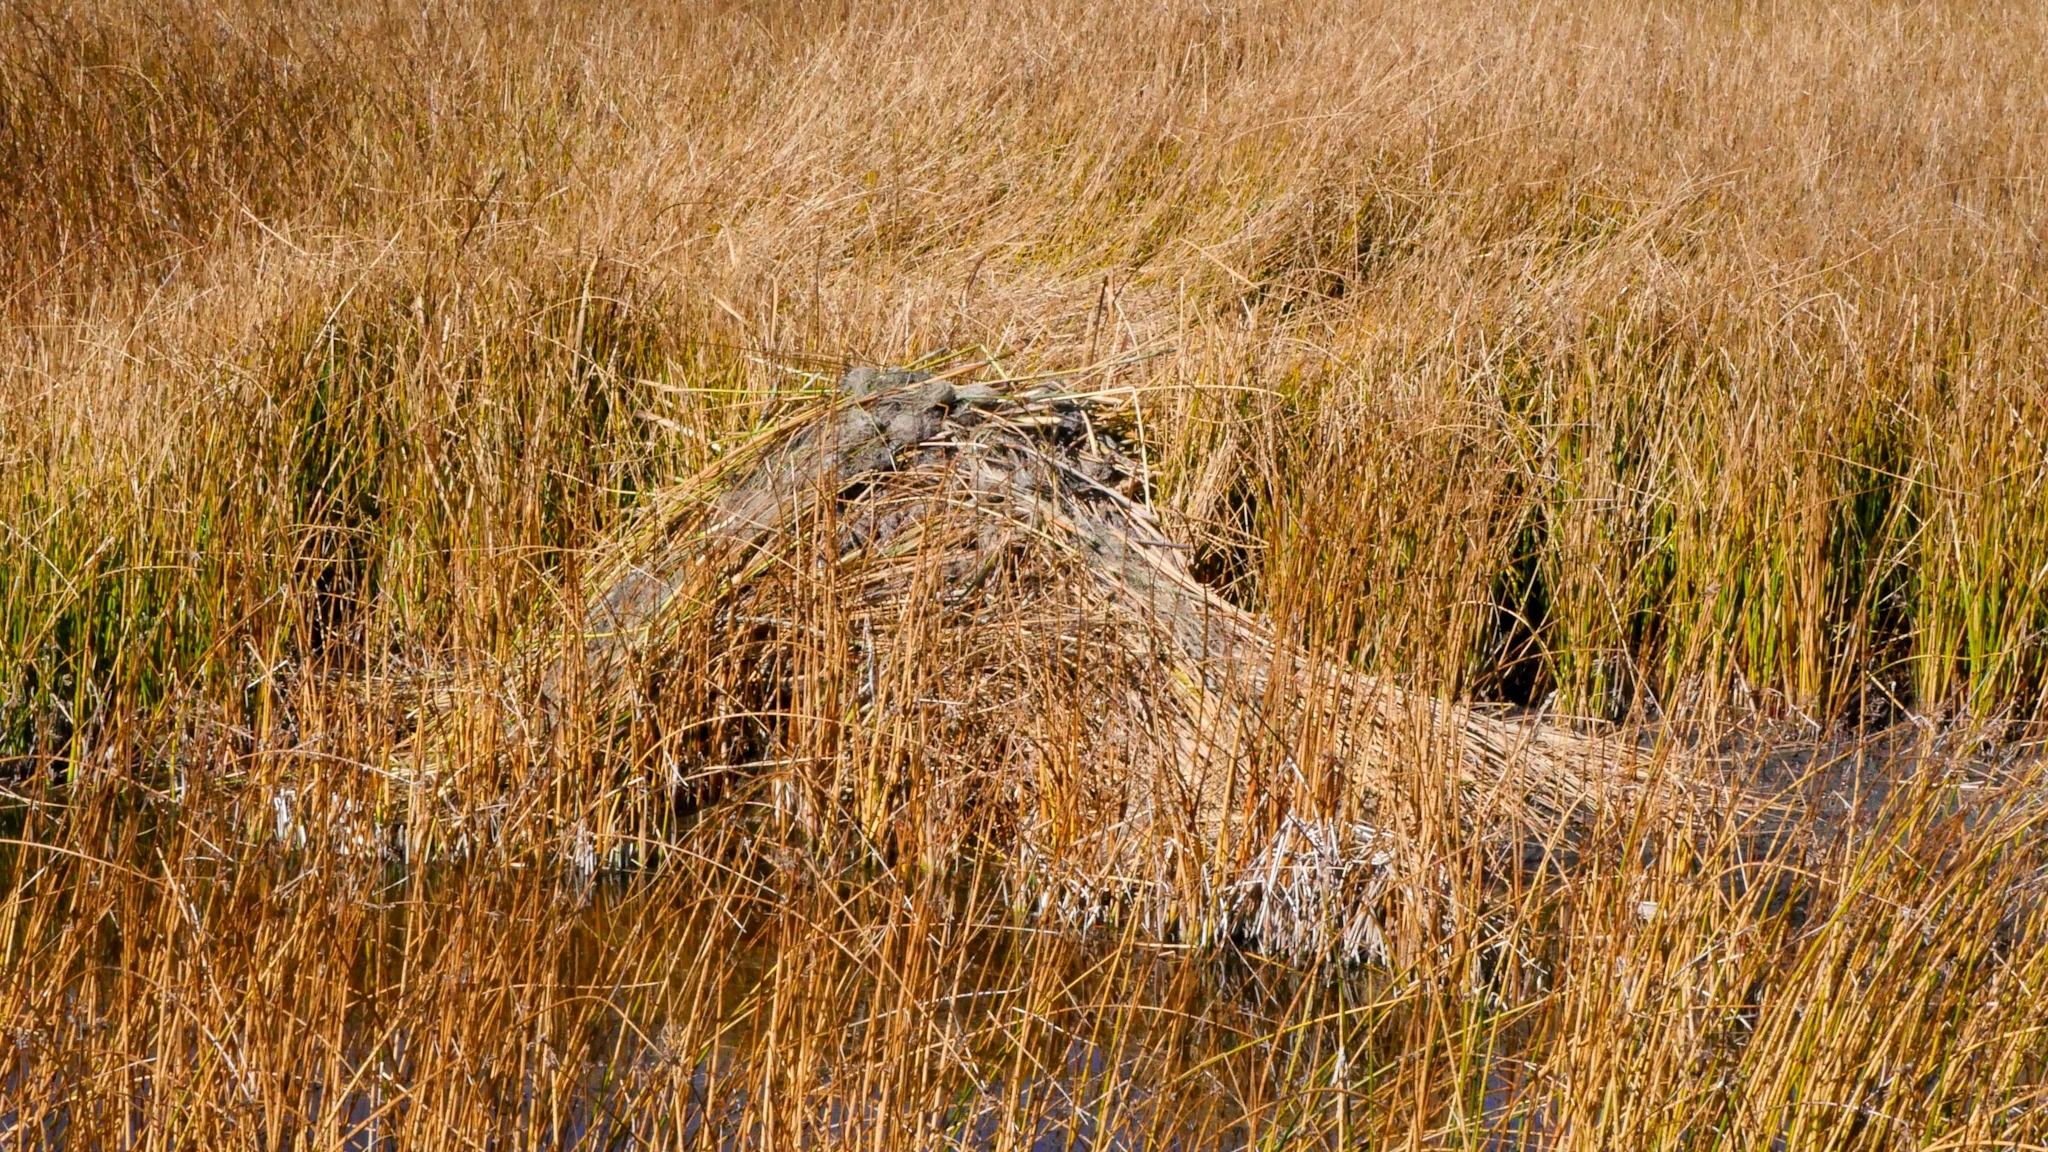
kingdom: Animalia
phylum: Chordata
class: Mammalia
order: Rodentia
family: Cricetidae
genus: Ondatra
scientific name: Ondatra zibethicus
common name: Muskrat
